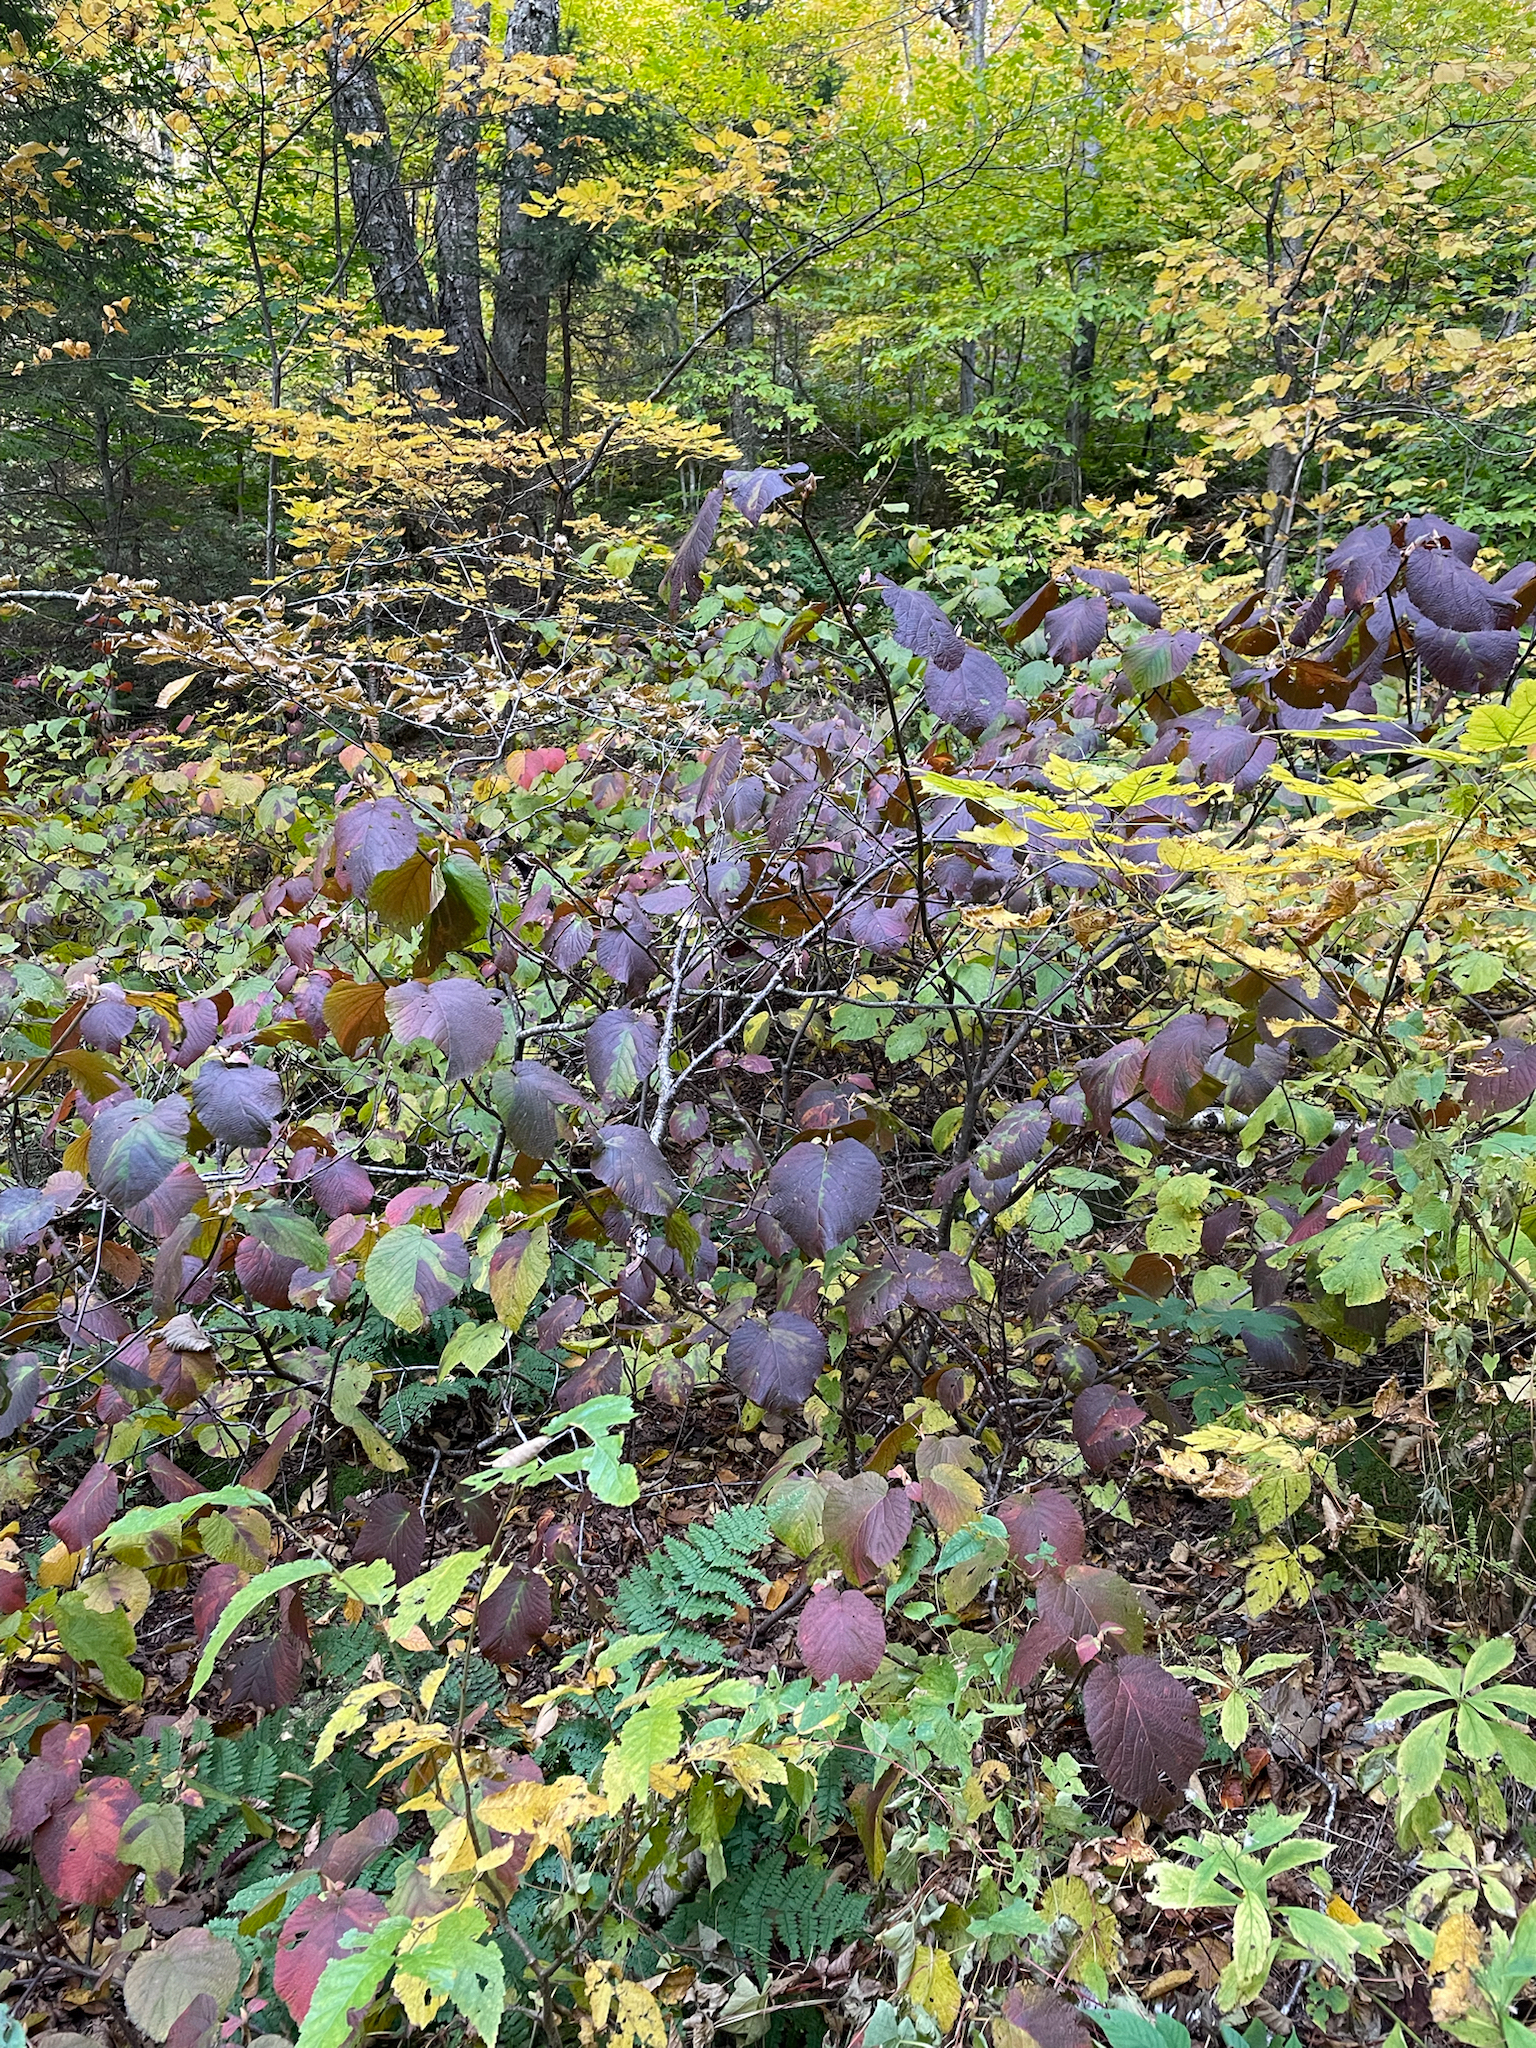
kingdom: Plantae
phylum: Tracheophyta
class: Magnoliopsida
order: Dipsacales
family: Viburnaceae
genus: Viburnum
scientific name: Viburnum lantanoides
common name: Hobblebush
